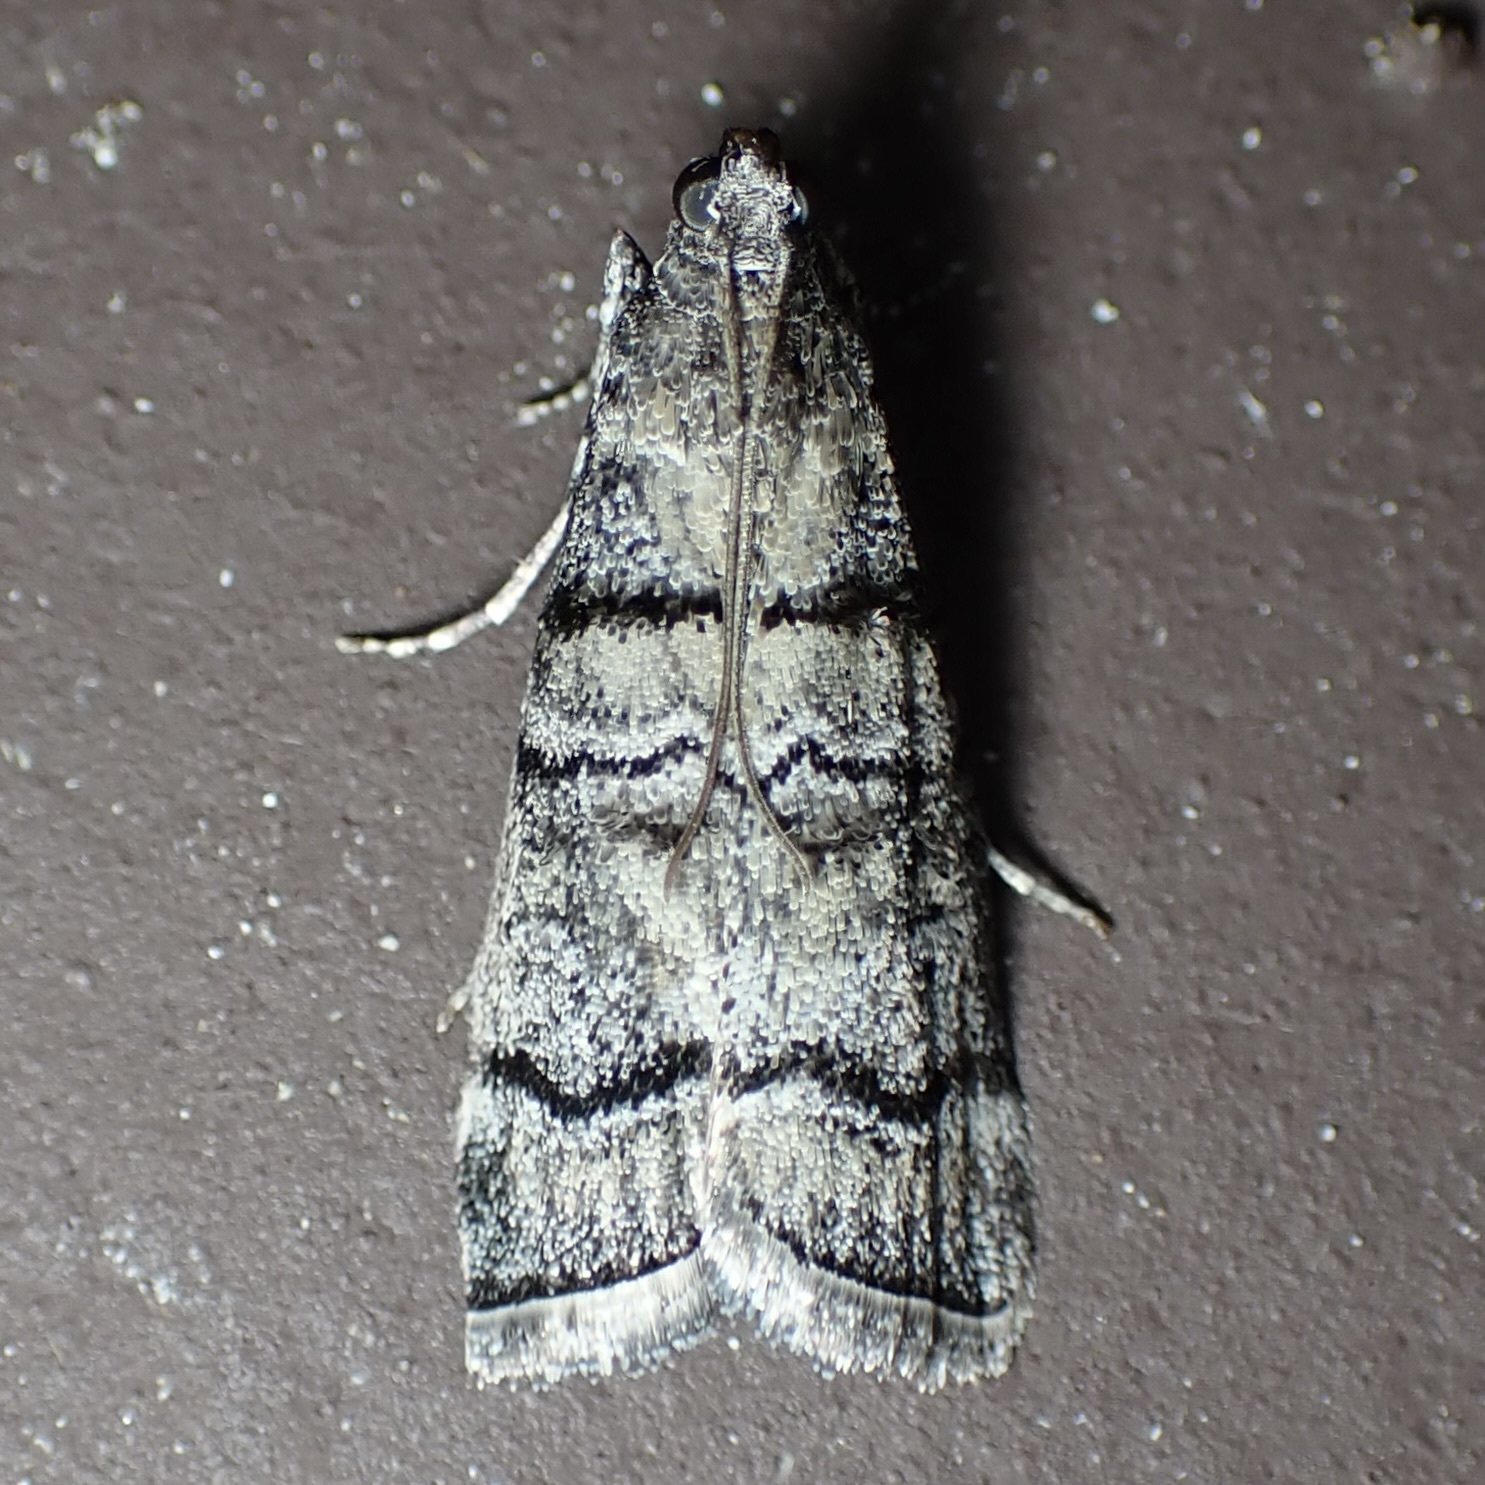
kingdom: Animalia
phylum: Arthropoda
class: Insecta
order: Lepidoptera
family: Pyralidae
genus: Dioryctria
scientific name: Dioryctria subtracta
